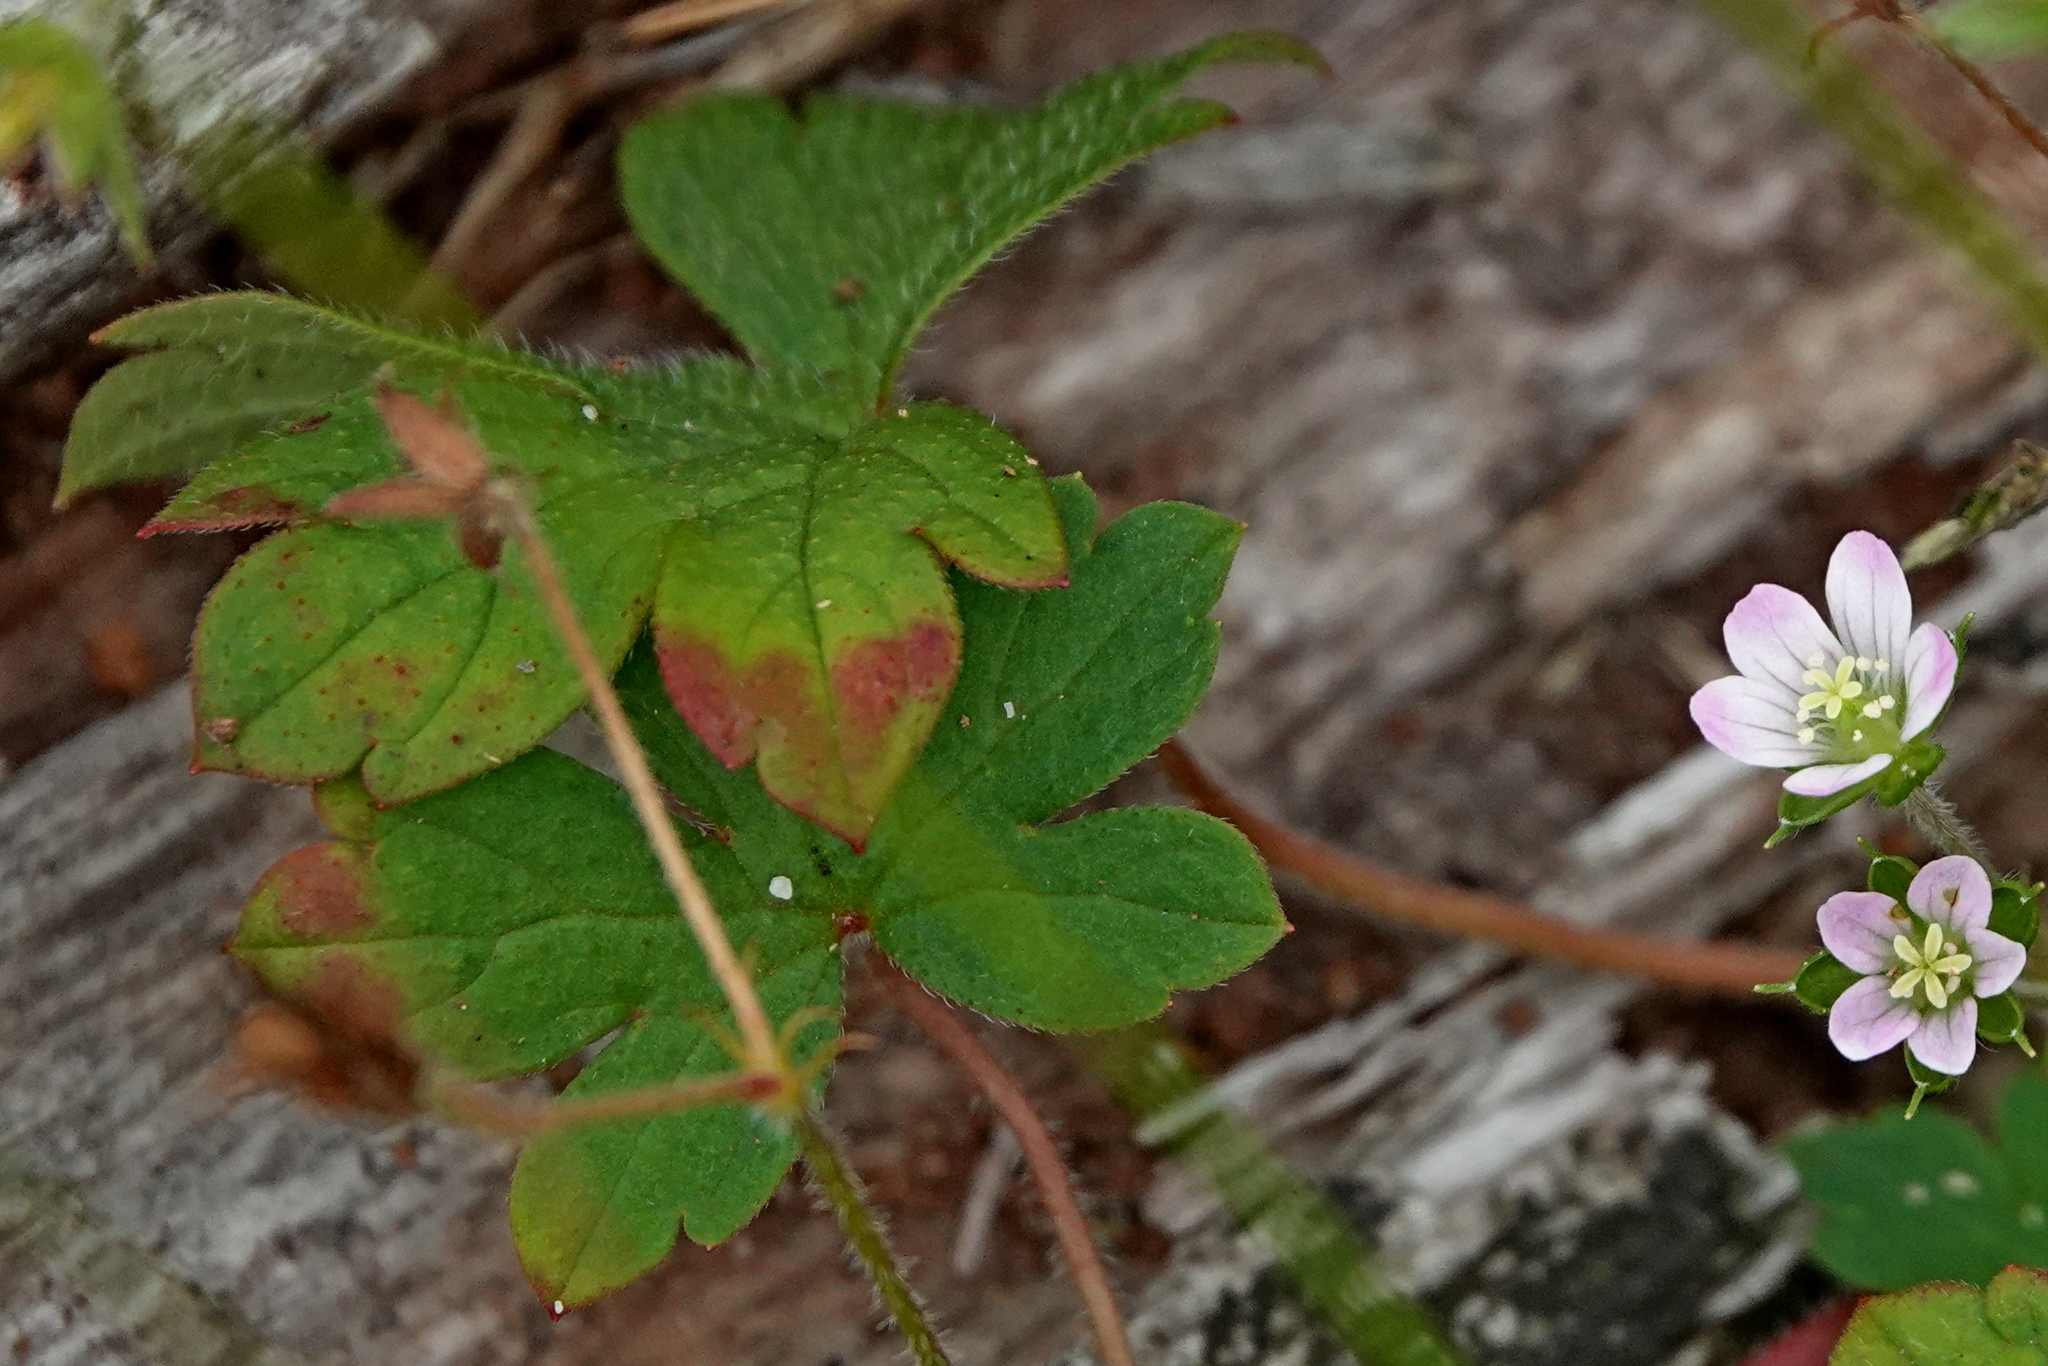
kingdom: Plantae
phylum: Tracheophyta
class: Magnoliopsida
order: Geraniales
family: Geraniaceae
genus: Geranium
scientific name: Geranium gardneri
